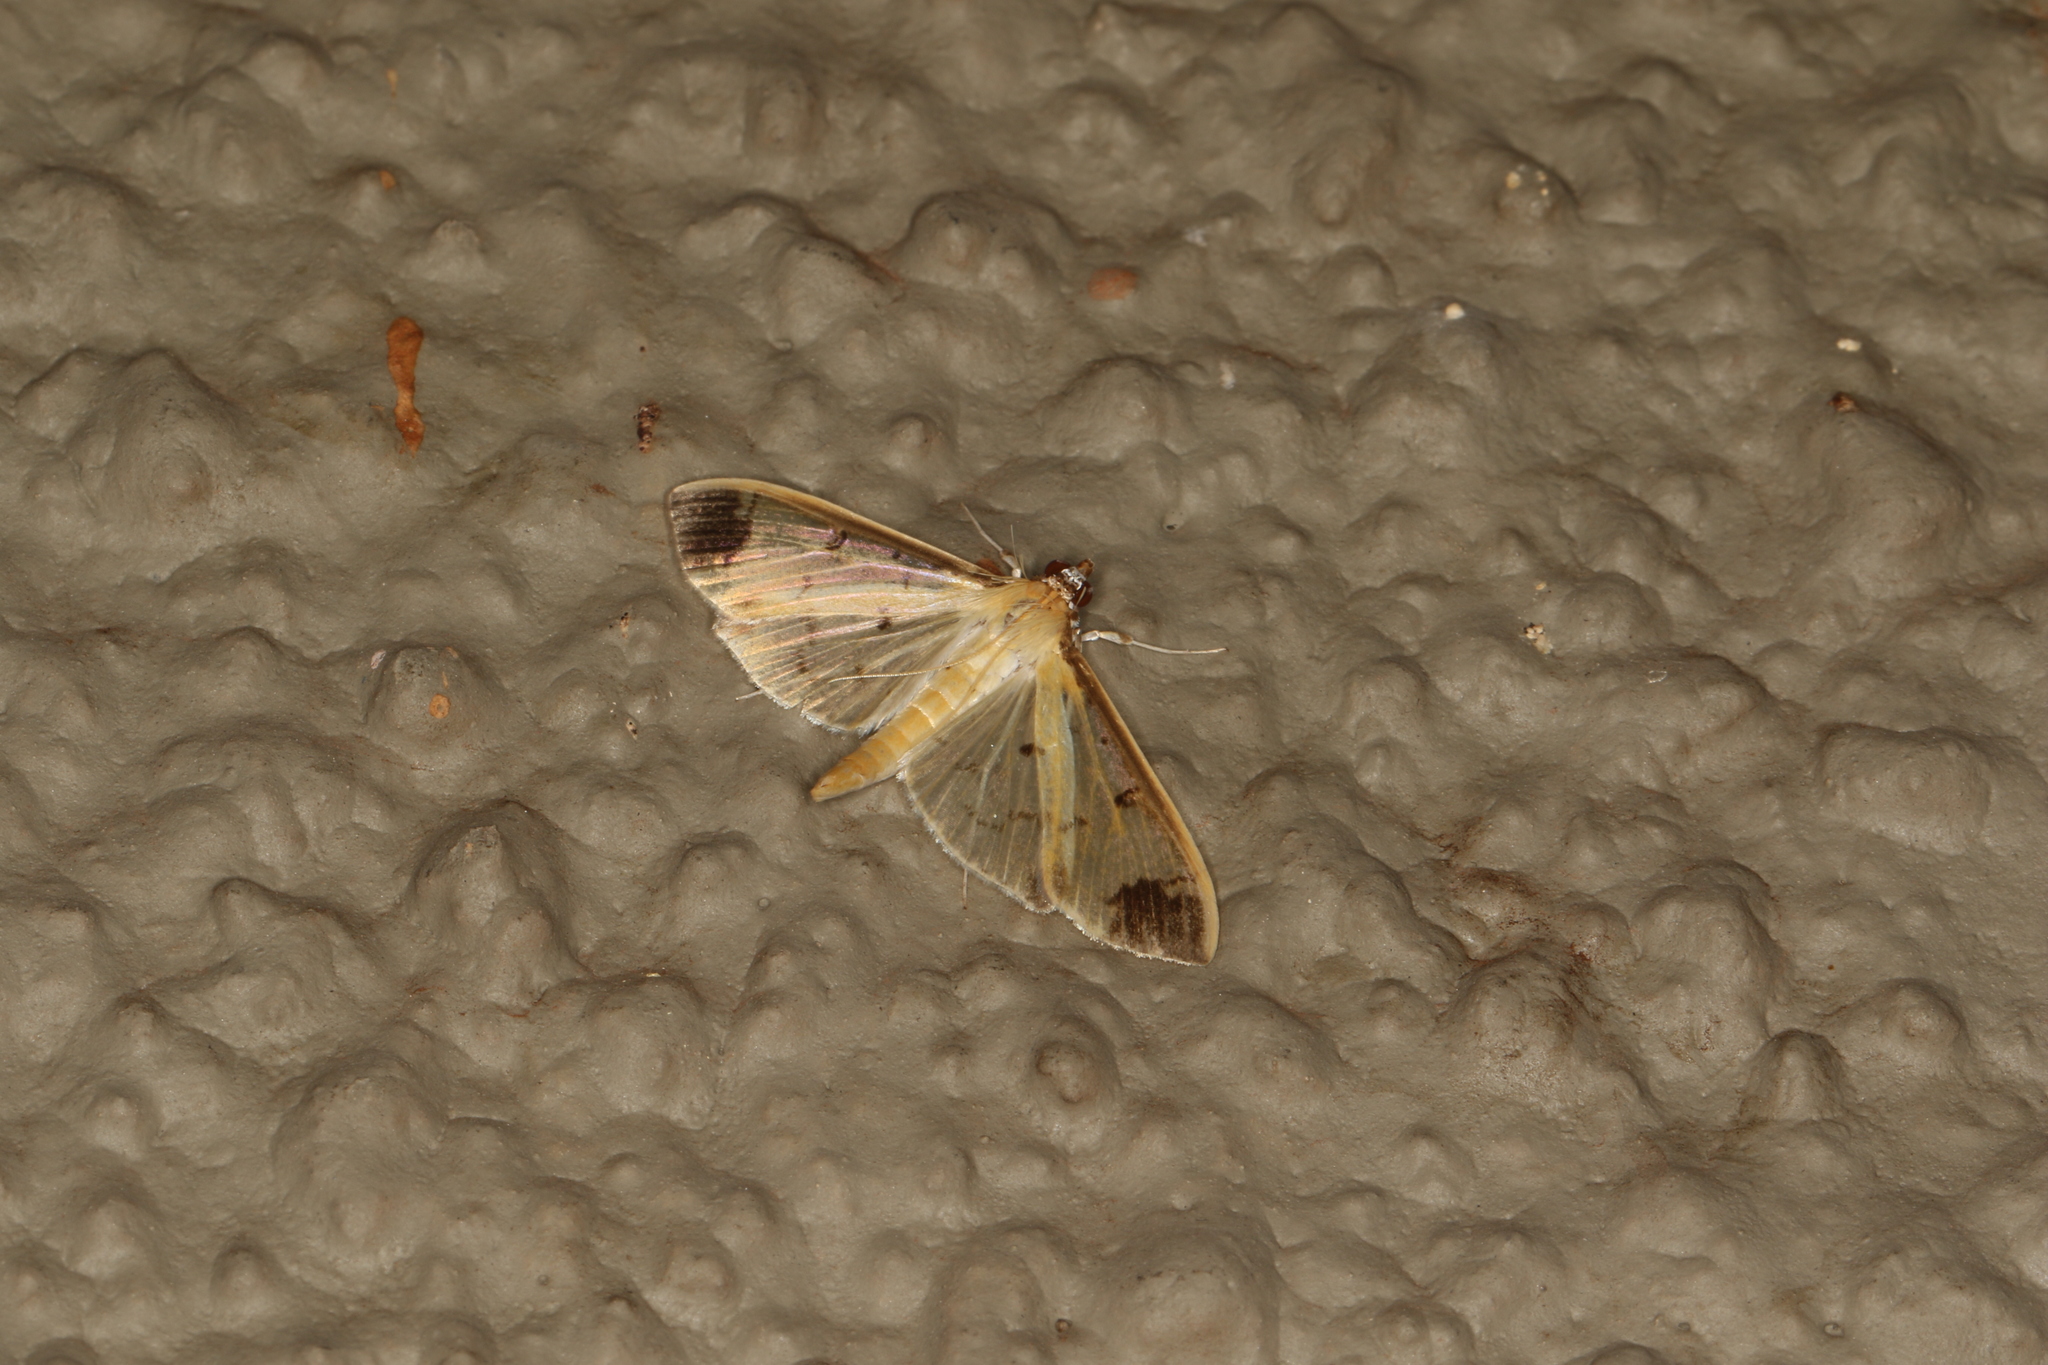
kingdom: Animalia
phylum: Arthropoda
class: Insecta
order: Lepidoptera
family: Crambidae
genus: Eulepte
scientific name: Eulepte concordalis
